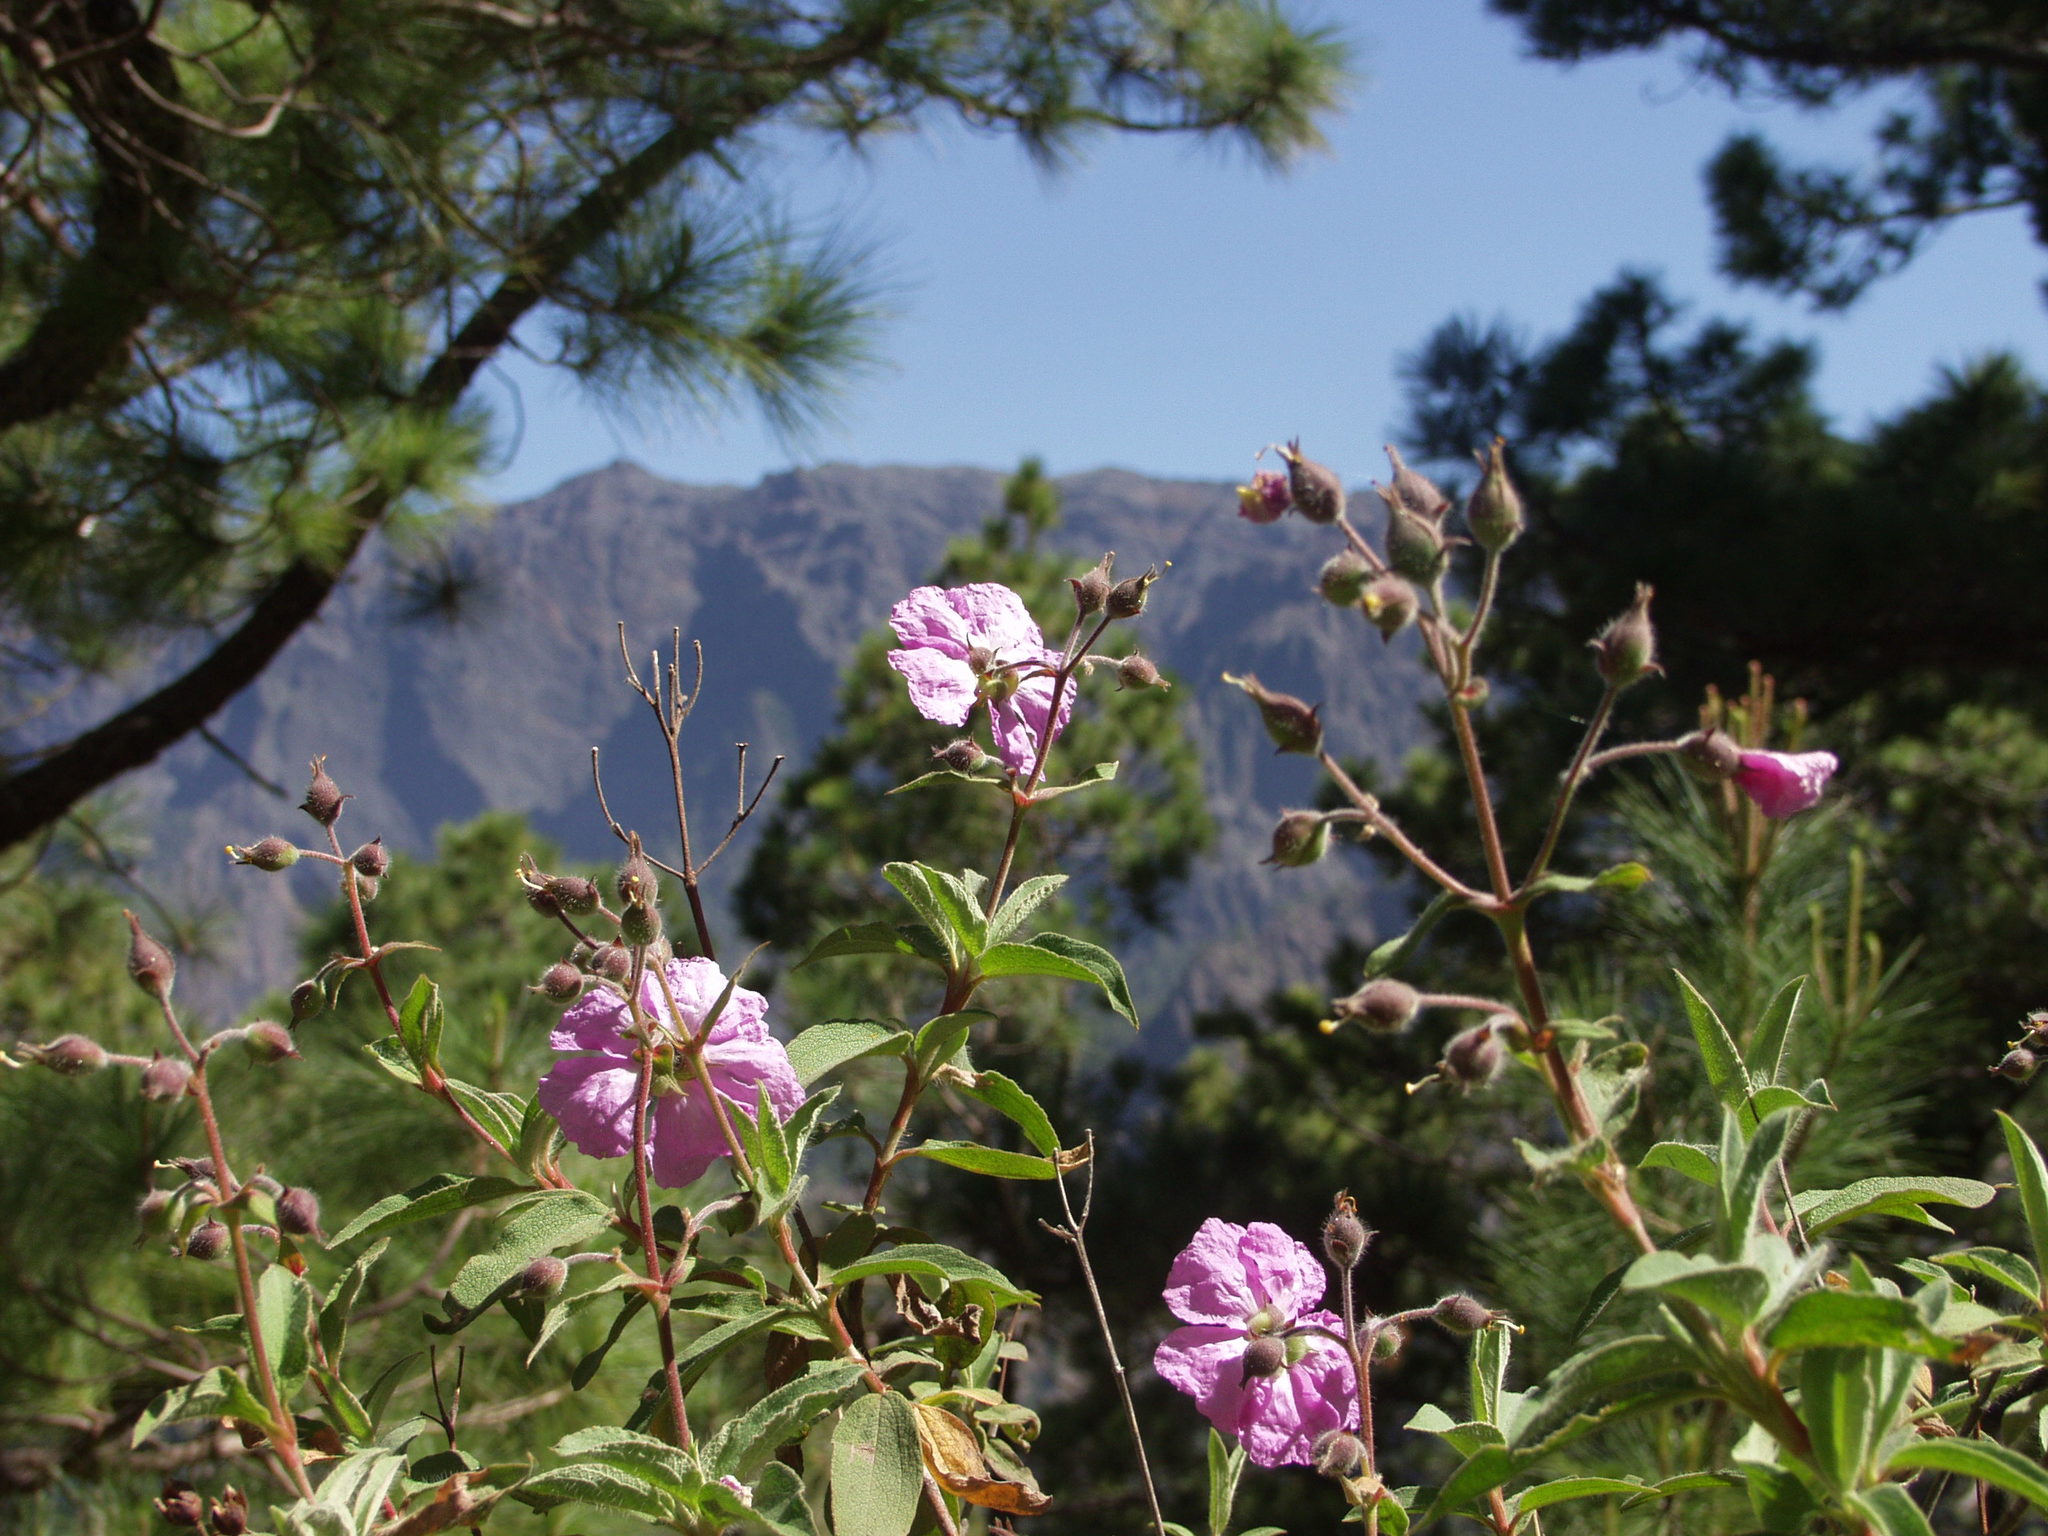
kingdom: Plantae
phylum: Tracheophyta
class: Magnoliopsida
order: Malvales
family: Cistaceae
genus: Cistus
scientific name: Cistus symphytifolius
